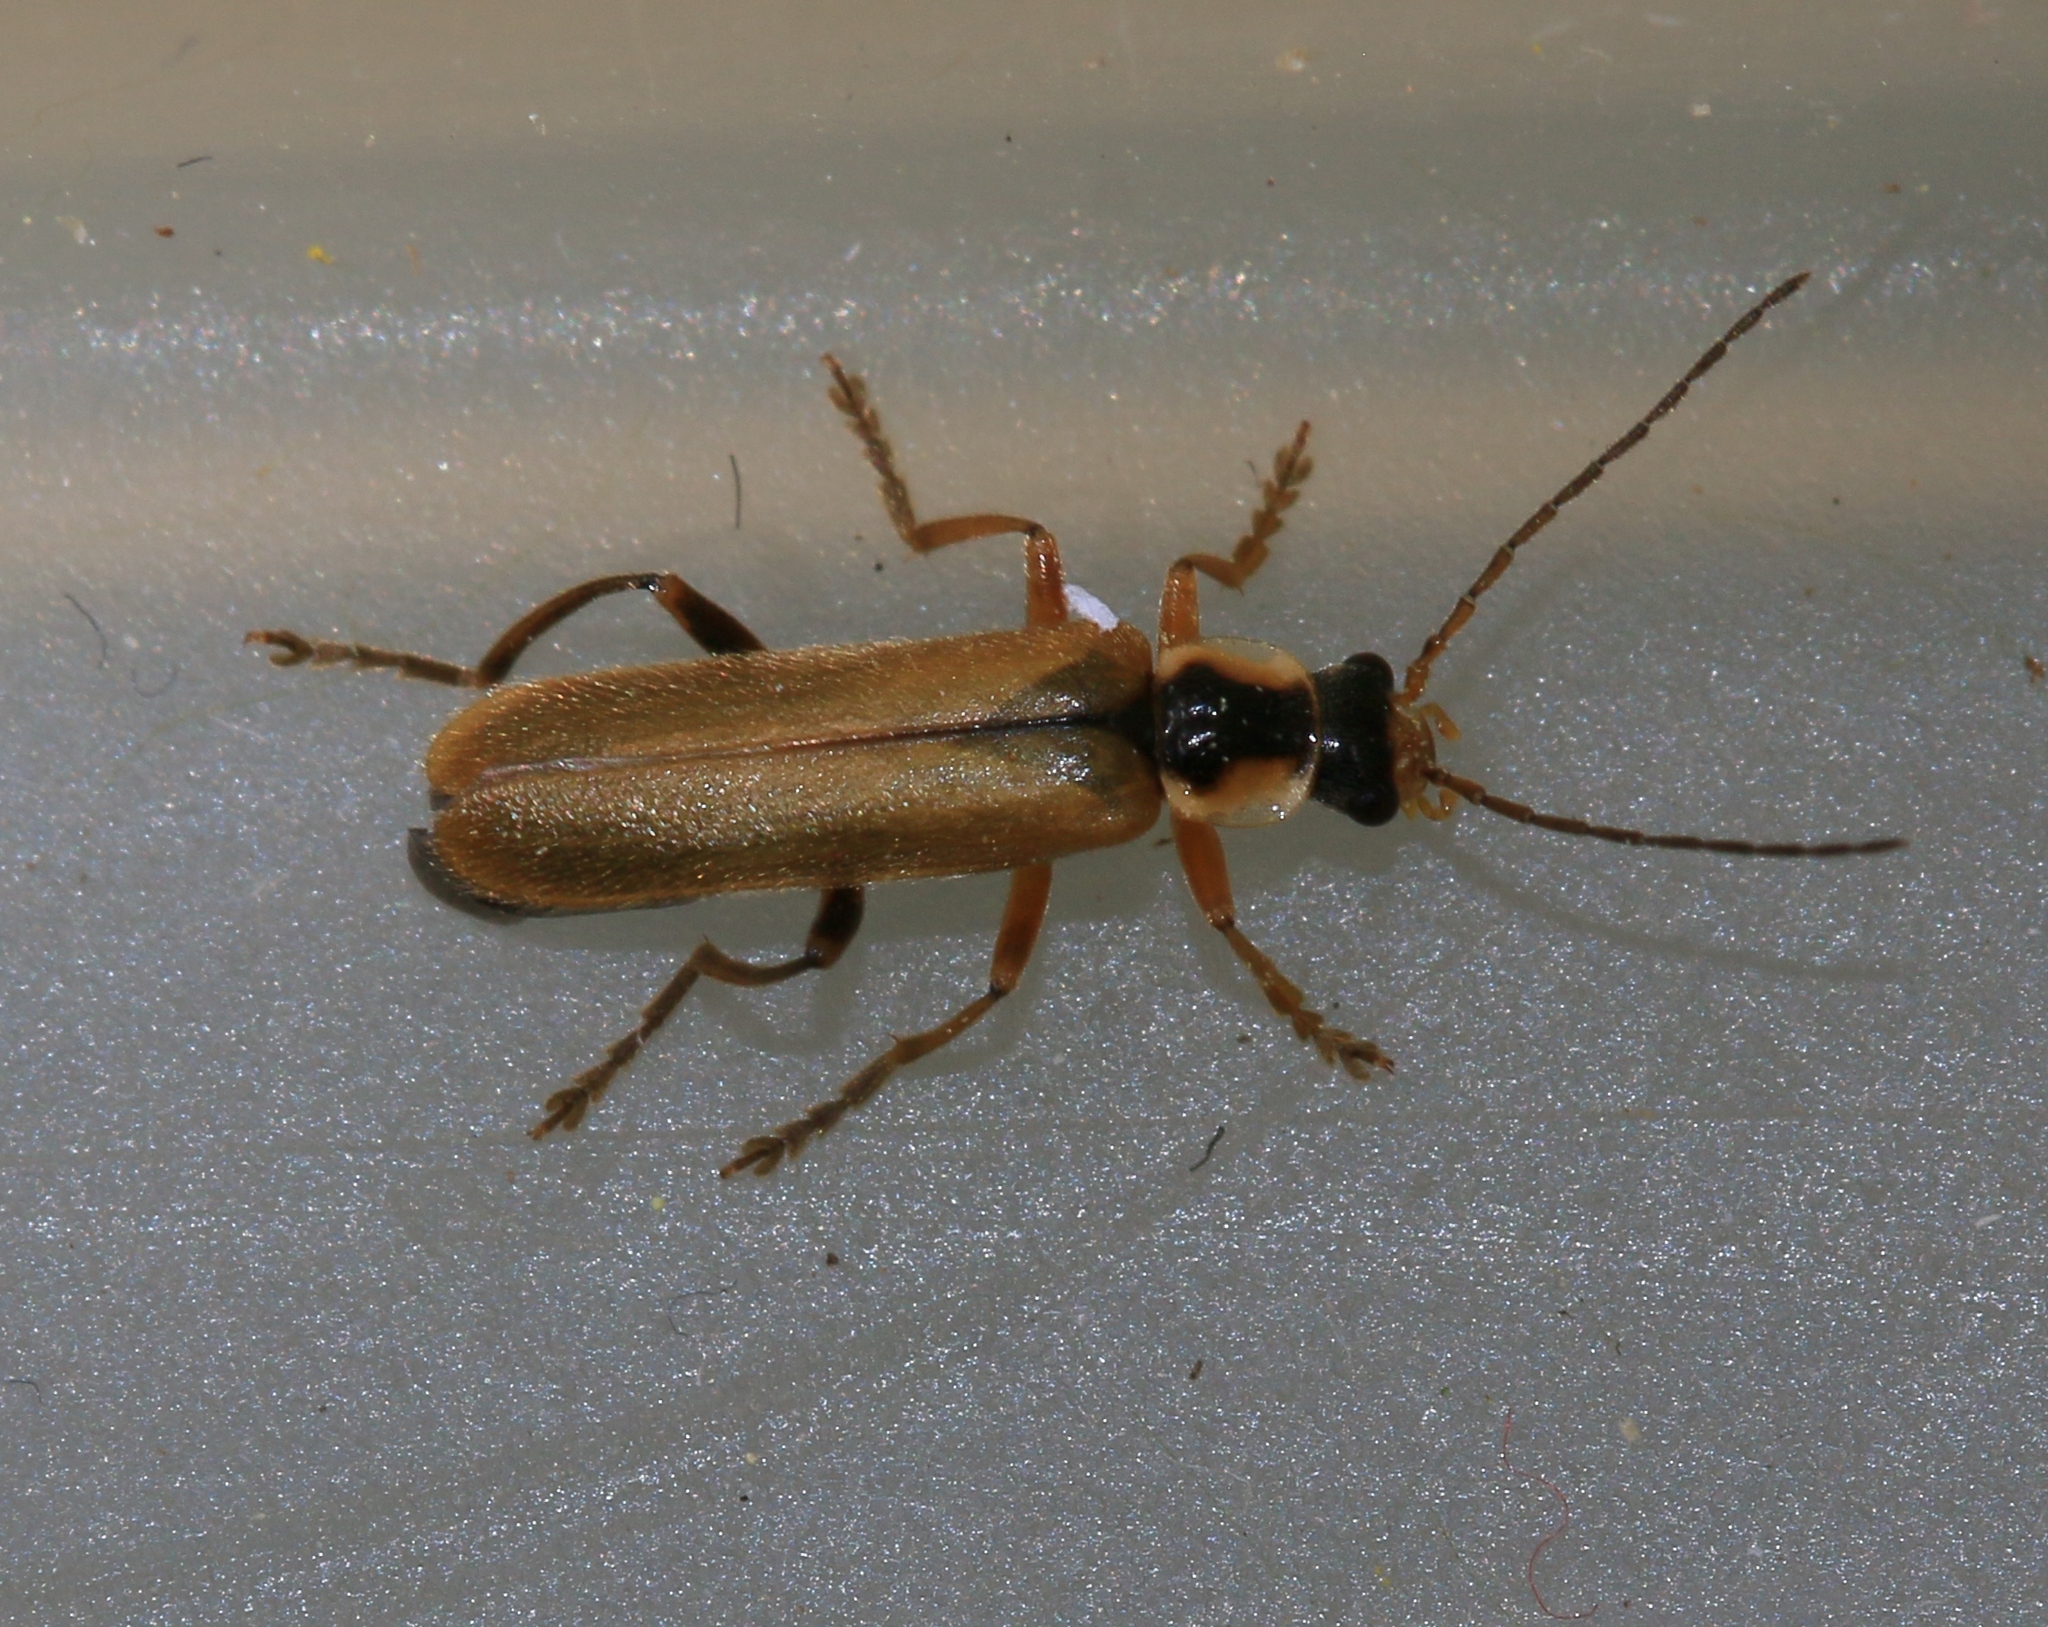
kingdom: Animalia
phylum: Arthropoda
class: Insecta
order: Coleoptera
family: Cantharidae
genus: Cantharis
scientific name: Cantharis decipiens
